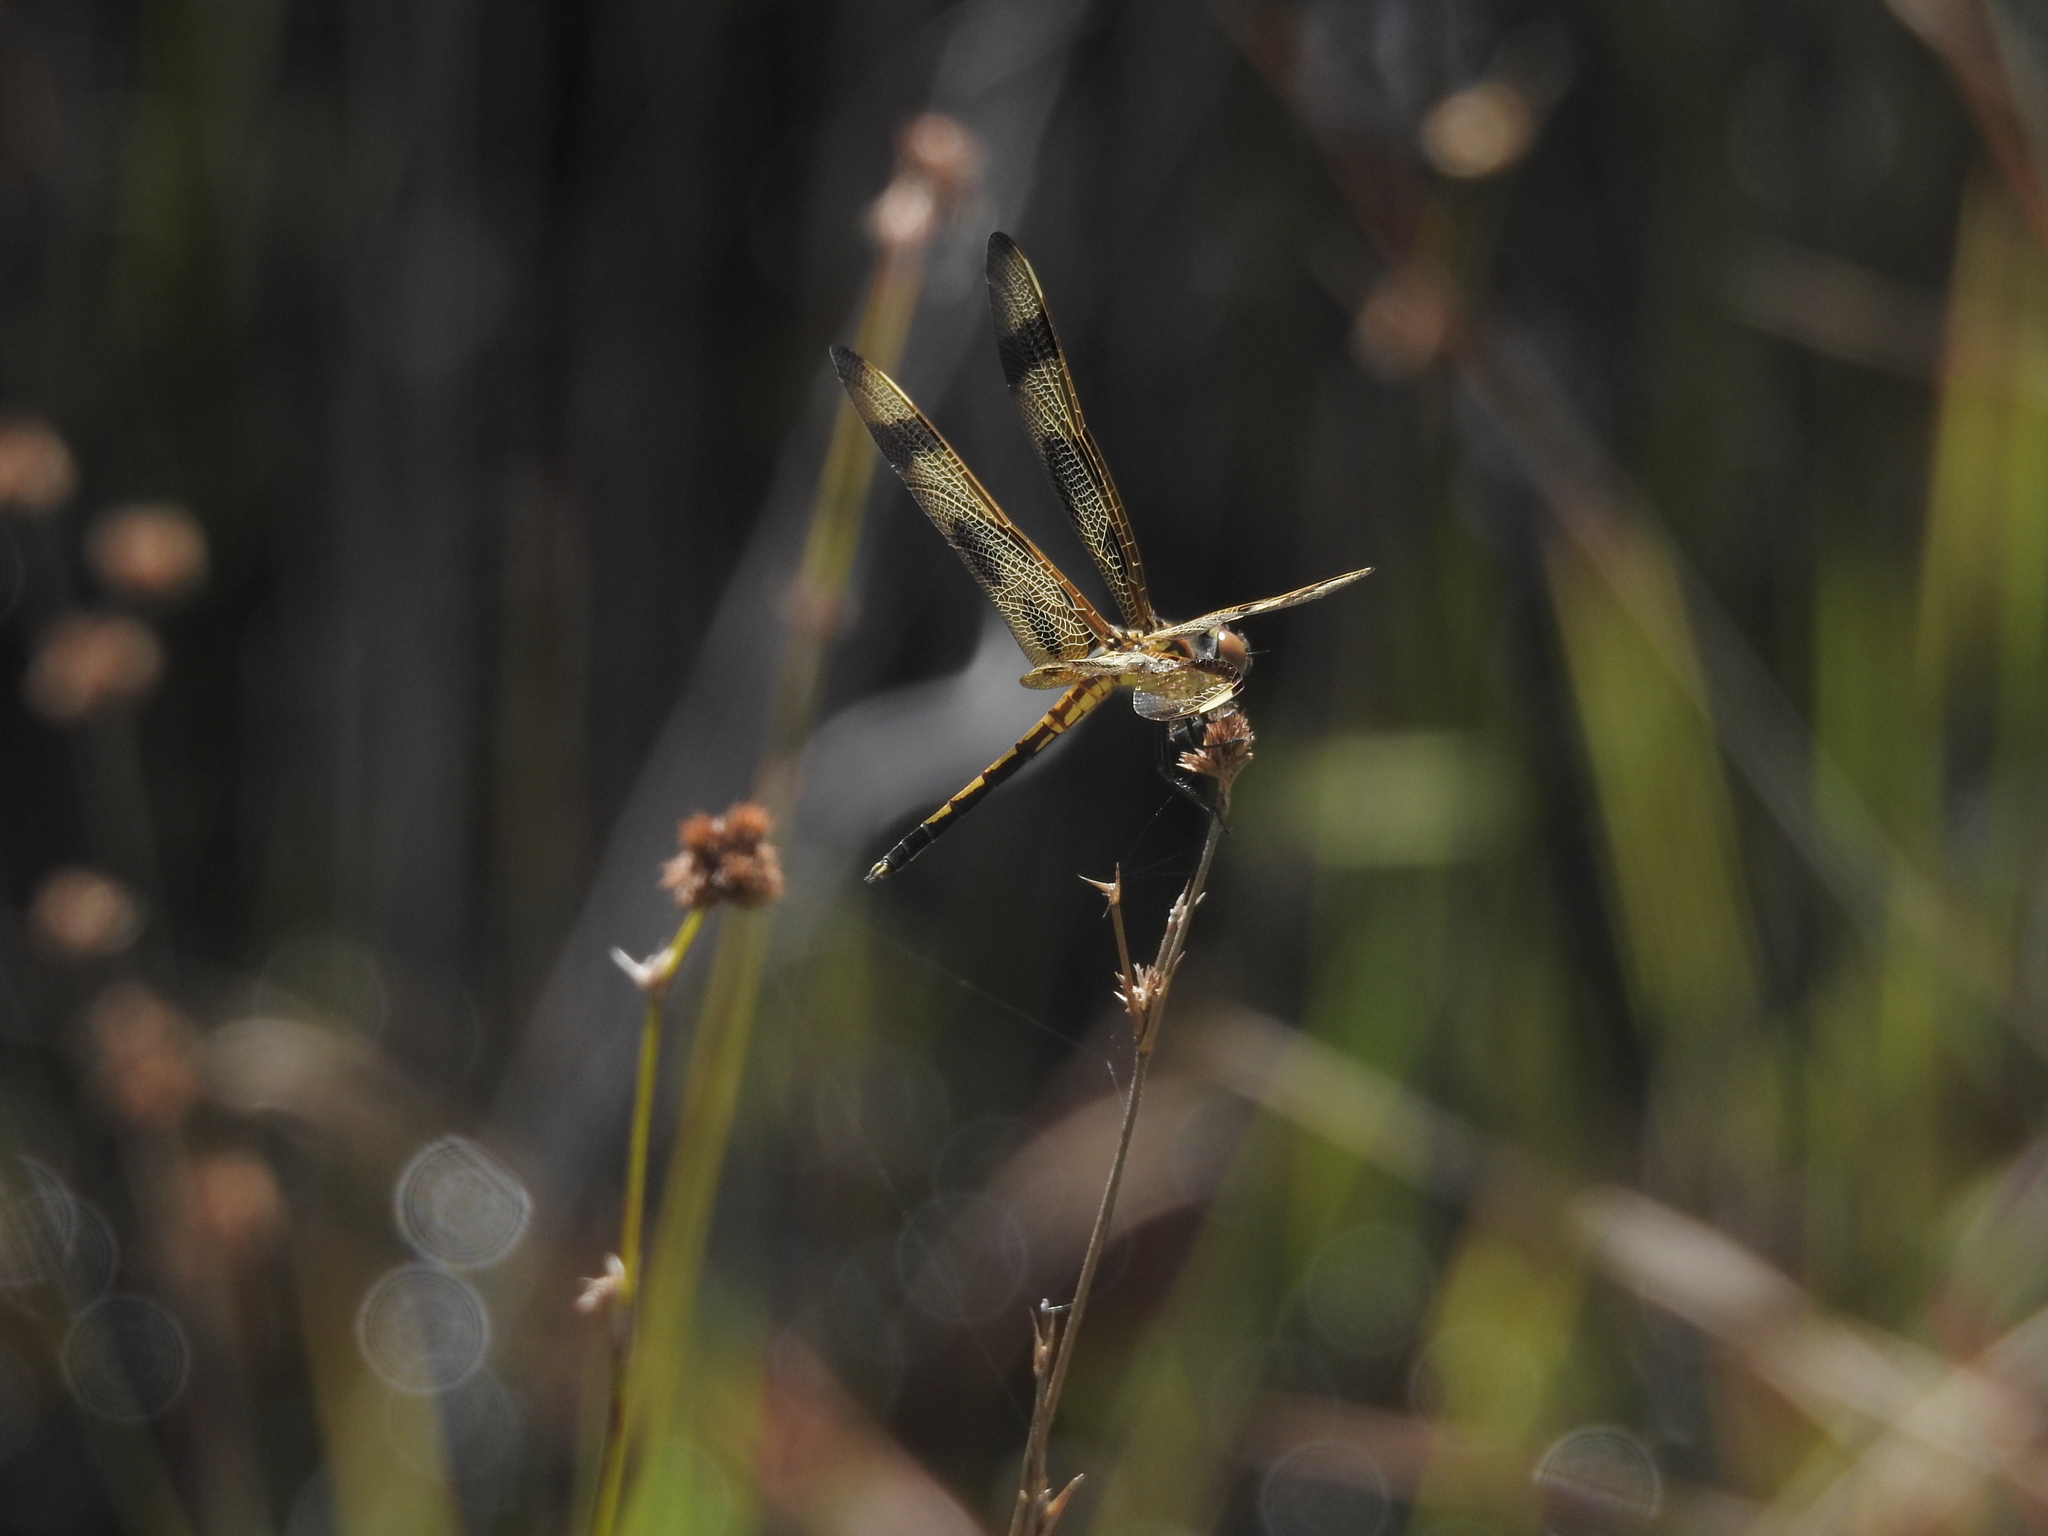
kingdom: Animalia
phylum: Arthropoda
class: Insecta
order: Odonata
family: Libellulidae
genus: Celithemis
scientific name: Celithemis eponina
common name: Halloween pennant
